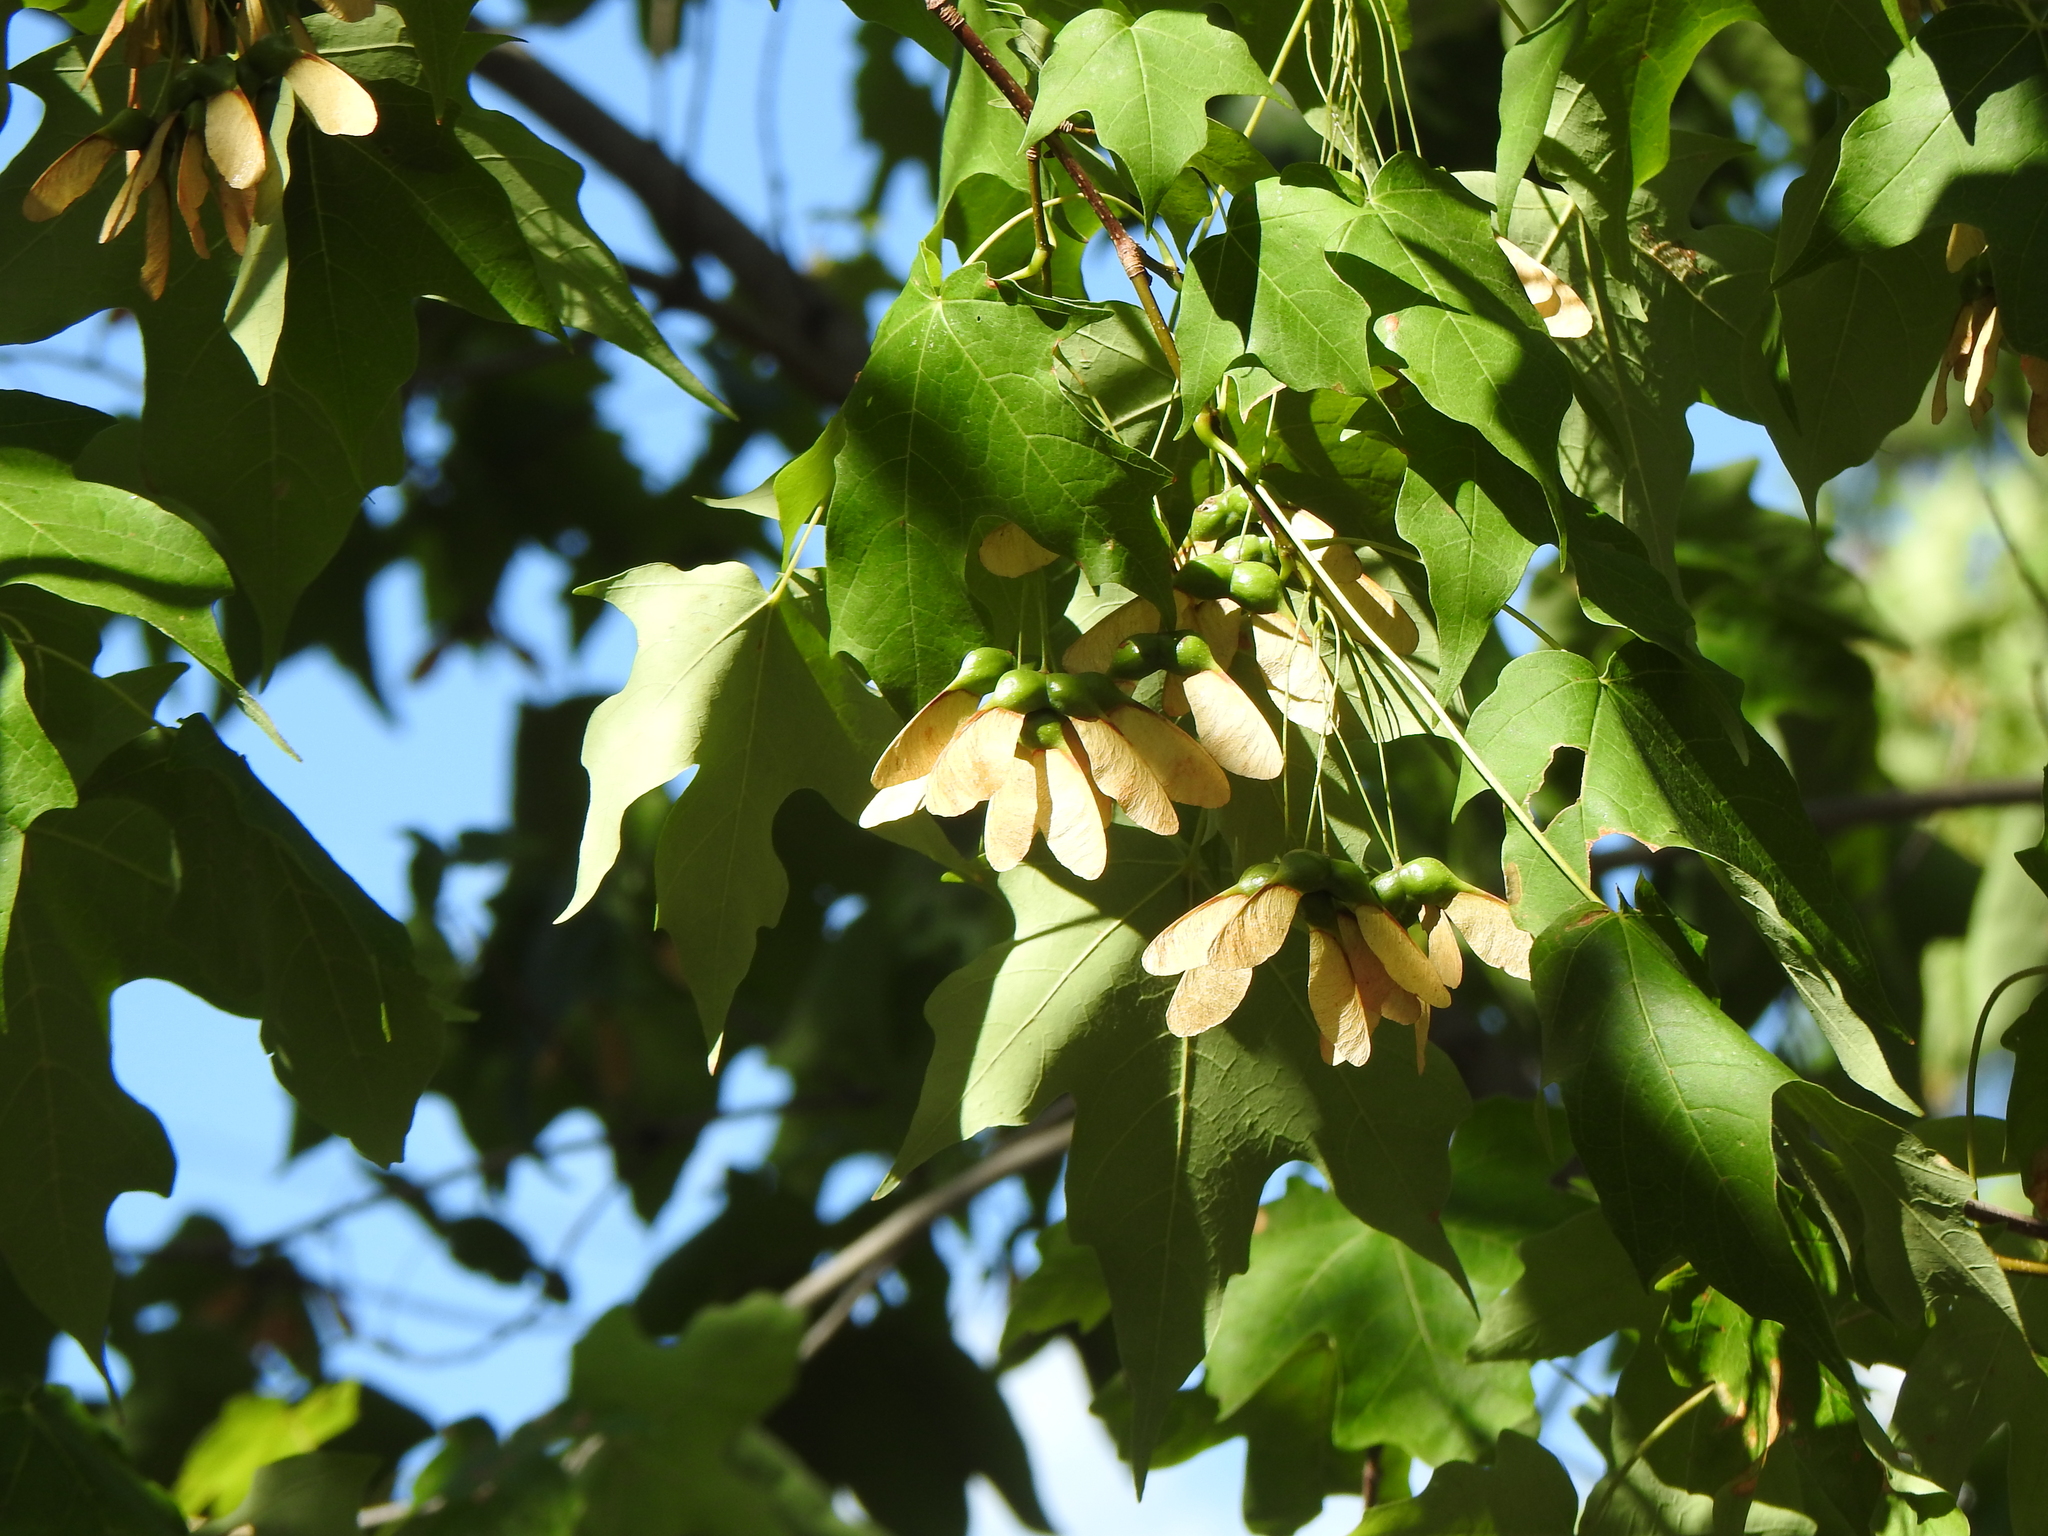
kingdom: Plantae
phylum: Tracheophyta
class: Magnoliopsida
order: Sapindales
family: Sapindaceae
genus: Acer
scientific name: Acer nigrum
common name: Black maple
